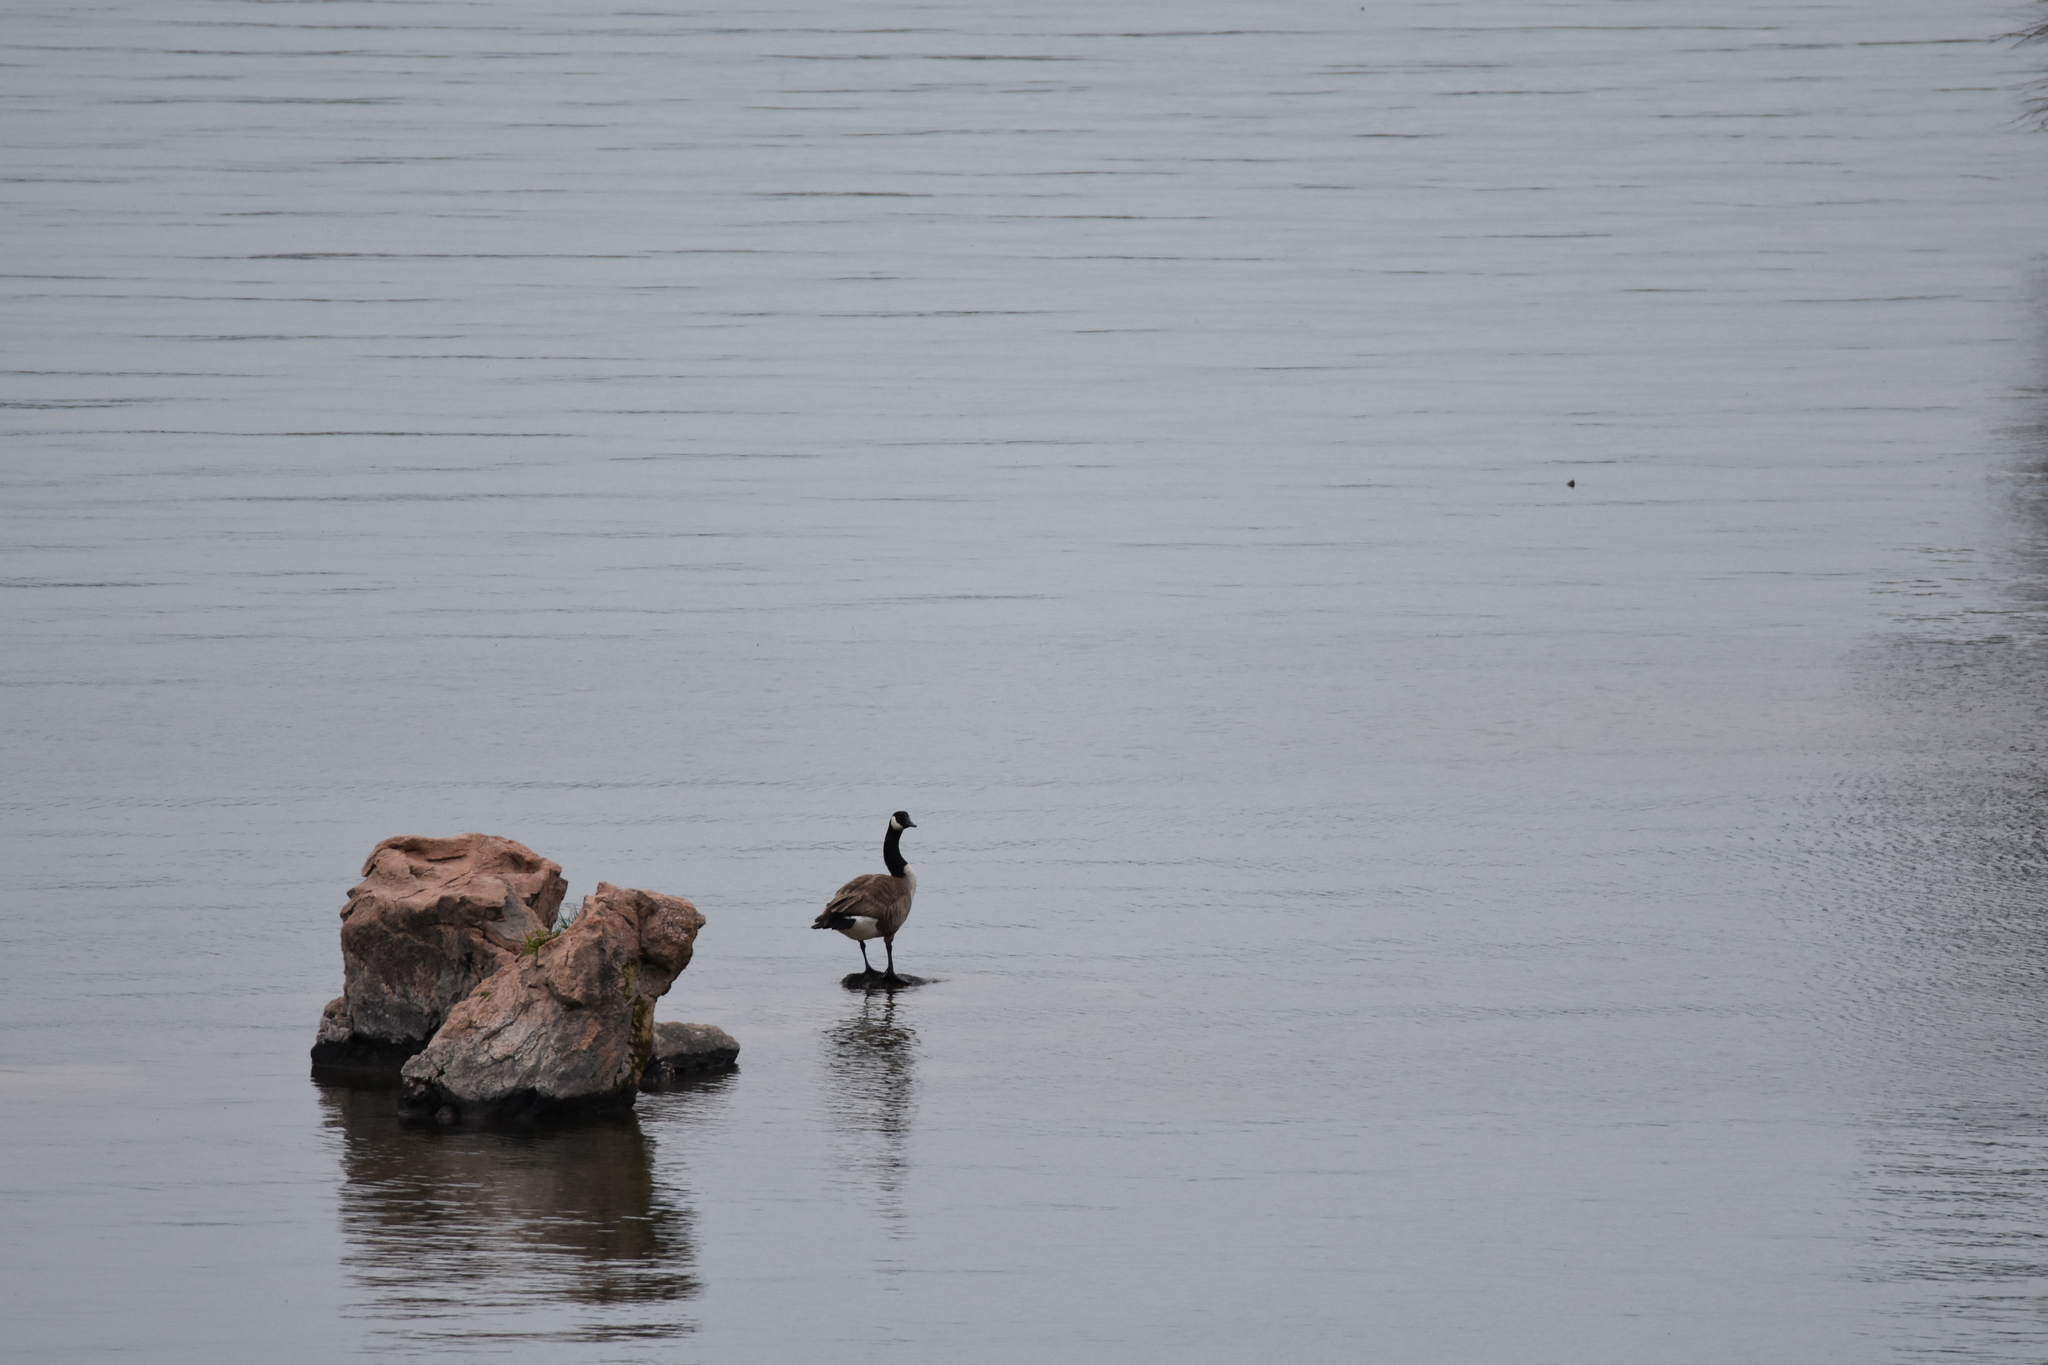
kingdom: Animalia
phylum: Chordata
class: Aves
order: Anseriformes
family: Anatidae
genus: Branta
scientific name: Branta canadensis
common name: Canada goose
